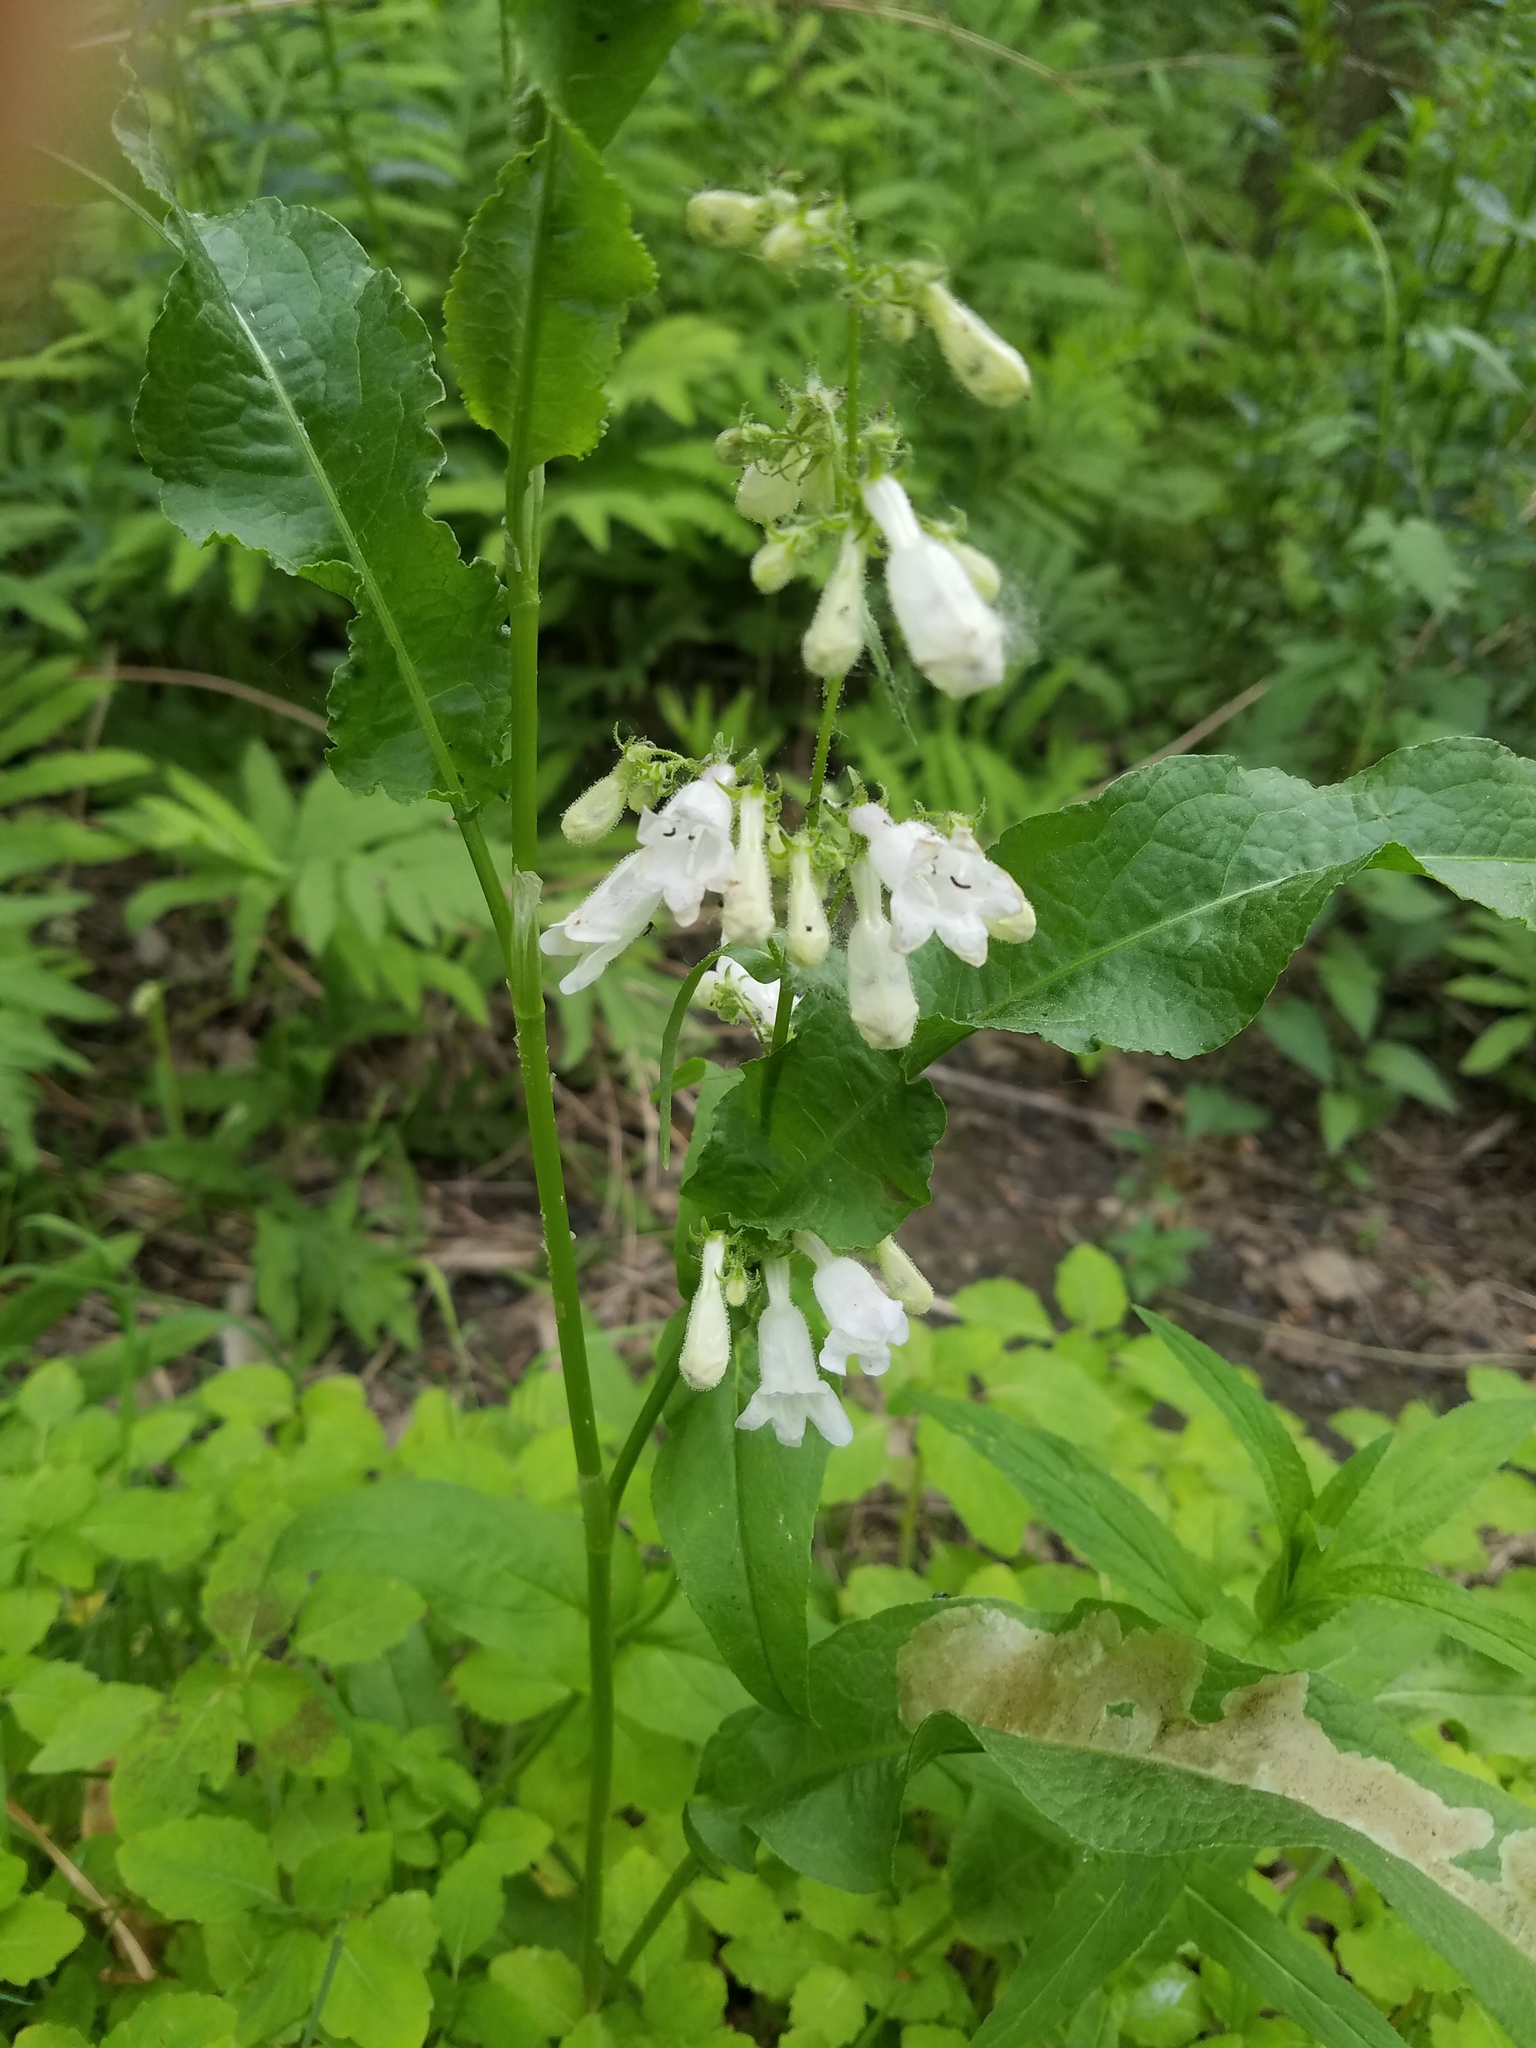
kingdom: Plantae
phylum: Tracheophyta
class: Magnoliopsida
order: Lamiales
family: Plantaginaceae
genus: Penstemon
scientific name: Penstemon digitalis
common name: Foxglove beardtongue
